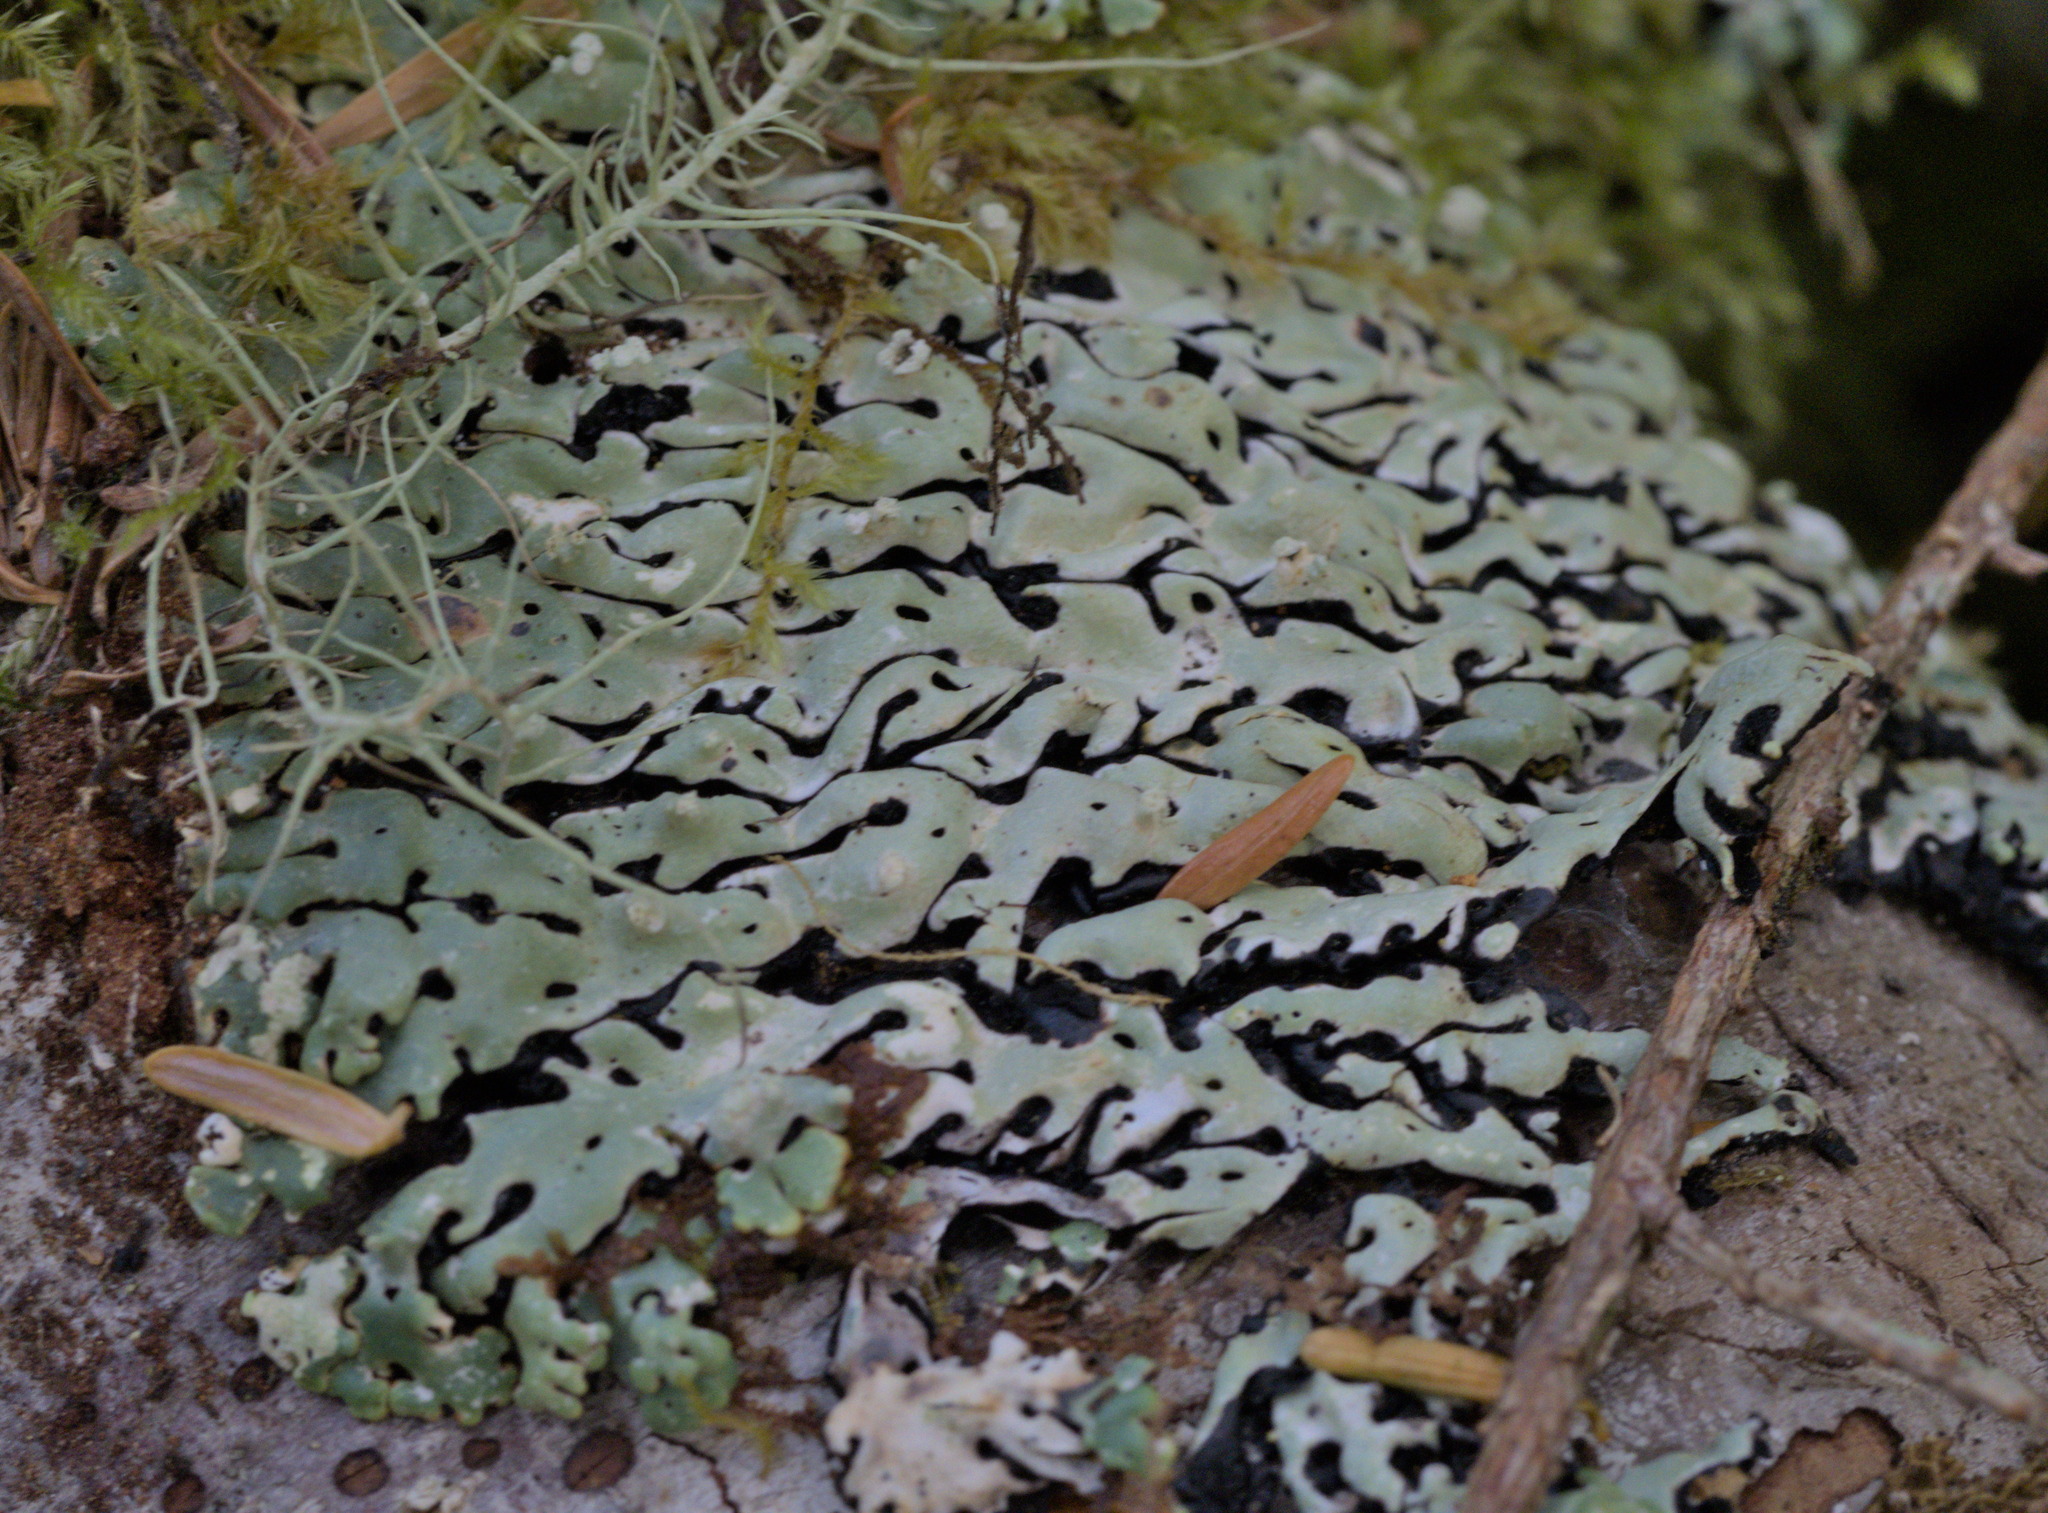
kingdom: Fungi
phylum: Ascomycota
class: Lecanoromycetes
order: Lecanorales
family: Parmeliaceae
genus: Menegazzia
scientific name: Menegazzia terebrata
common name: Magic treeflute lichen
